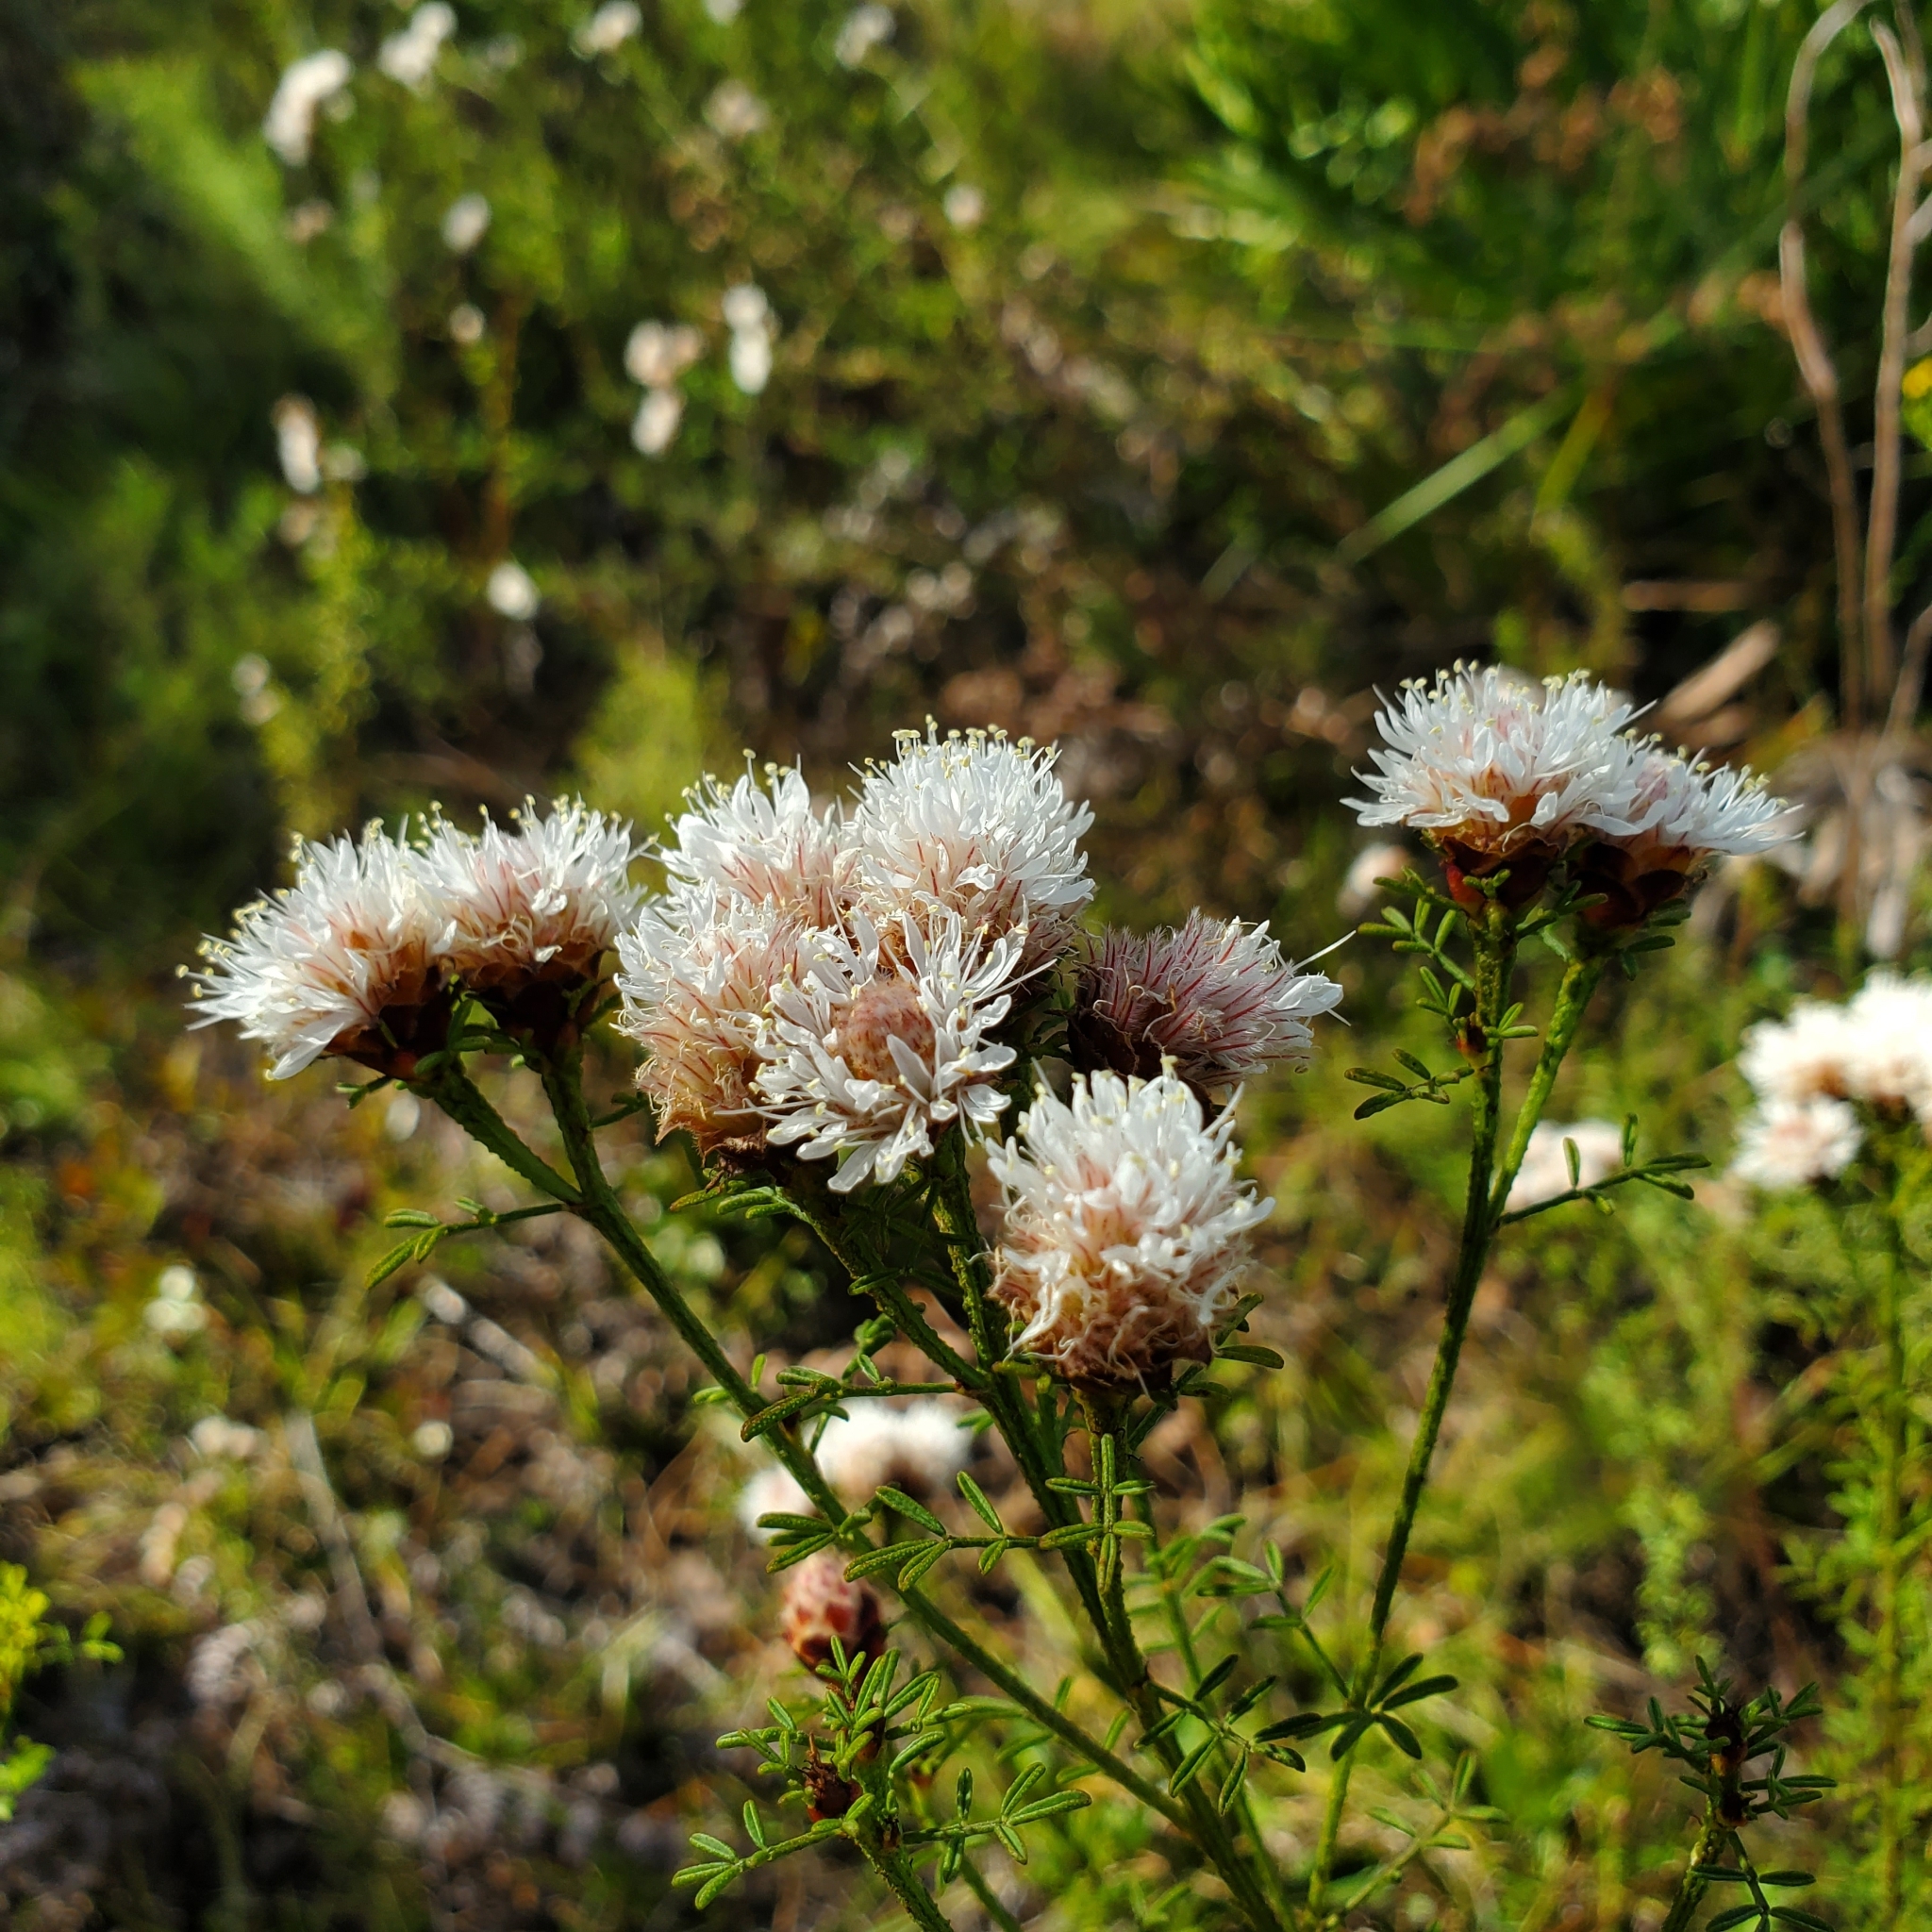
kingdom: Plantae
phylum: Tracheophyta
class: Magnoliopsida
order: Fabales
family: Fabaceae
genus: Dalea
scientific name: Dalea pinnata
